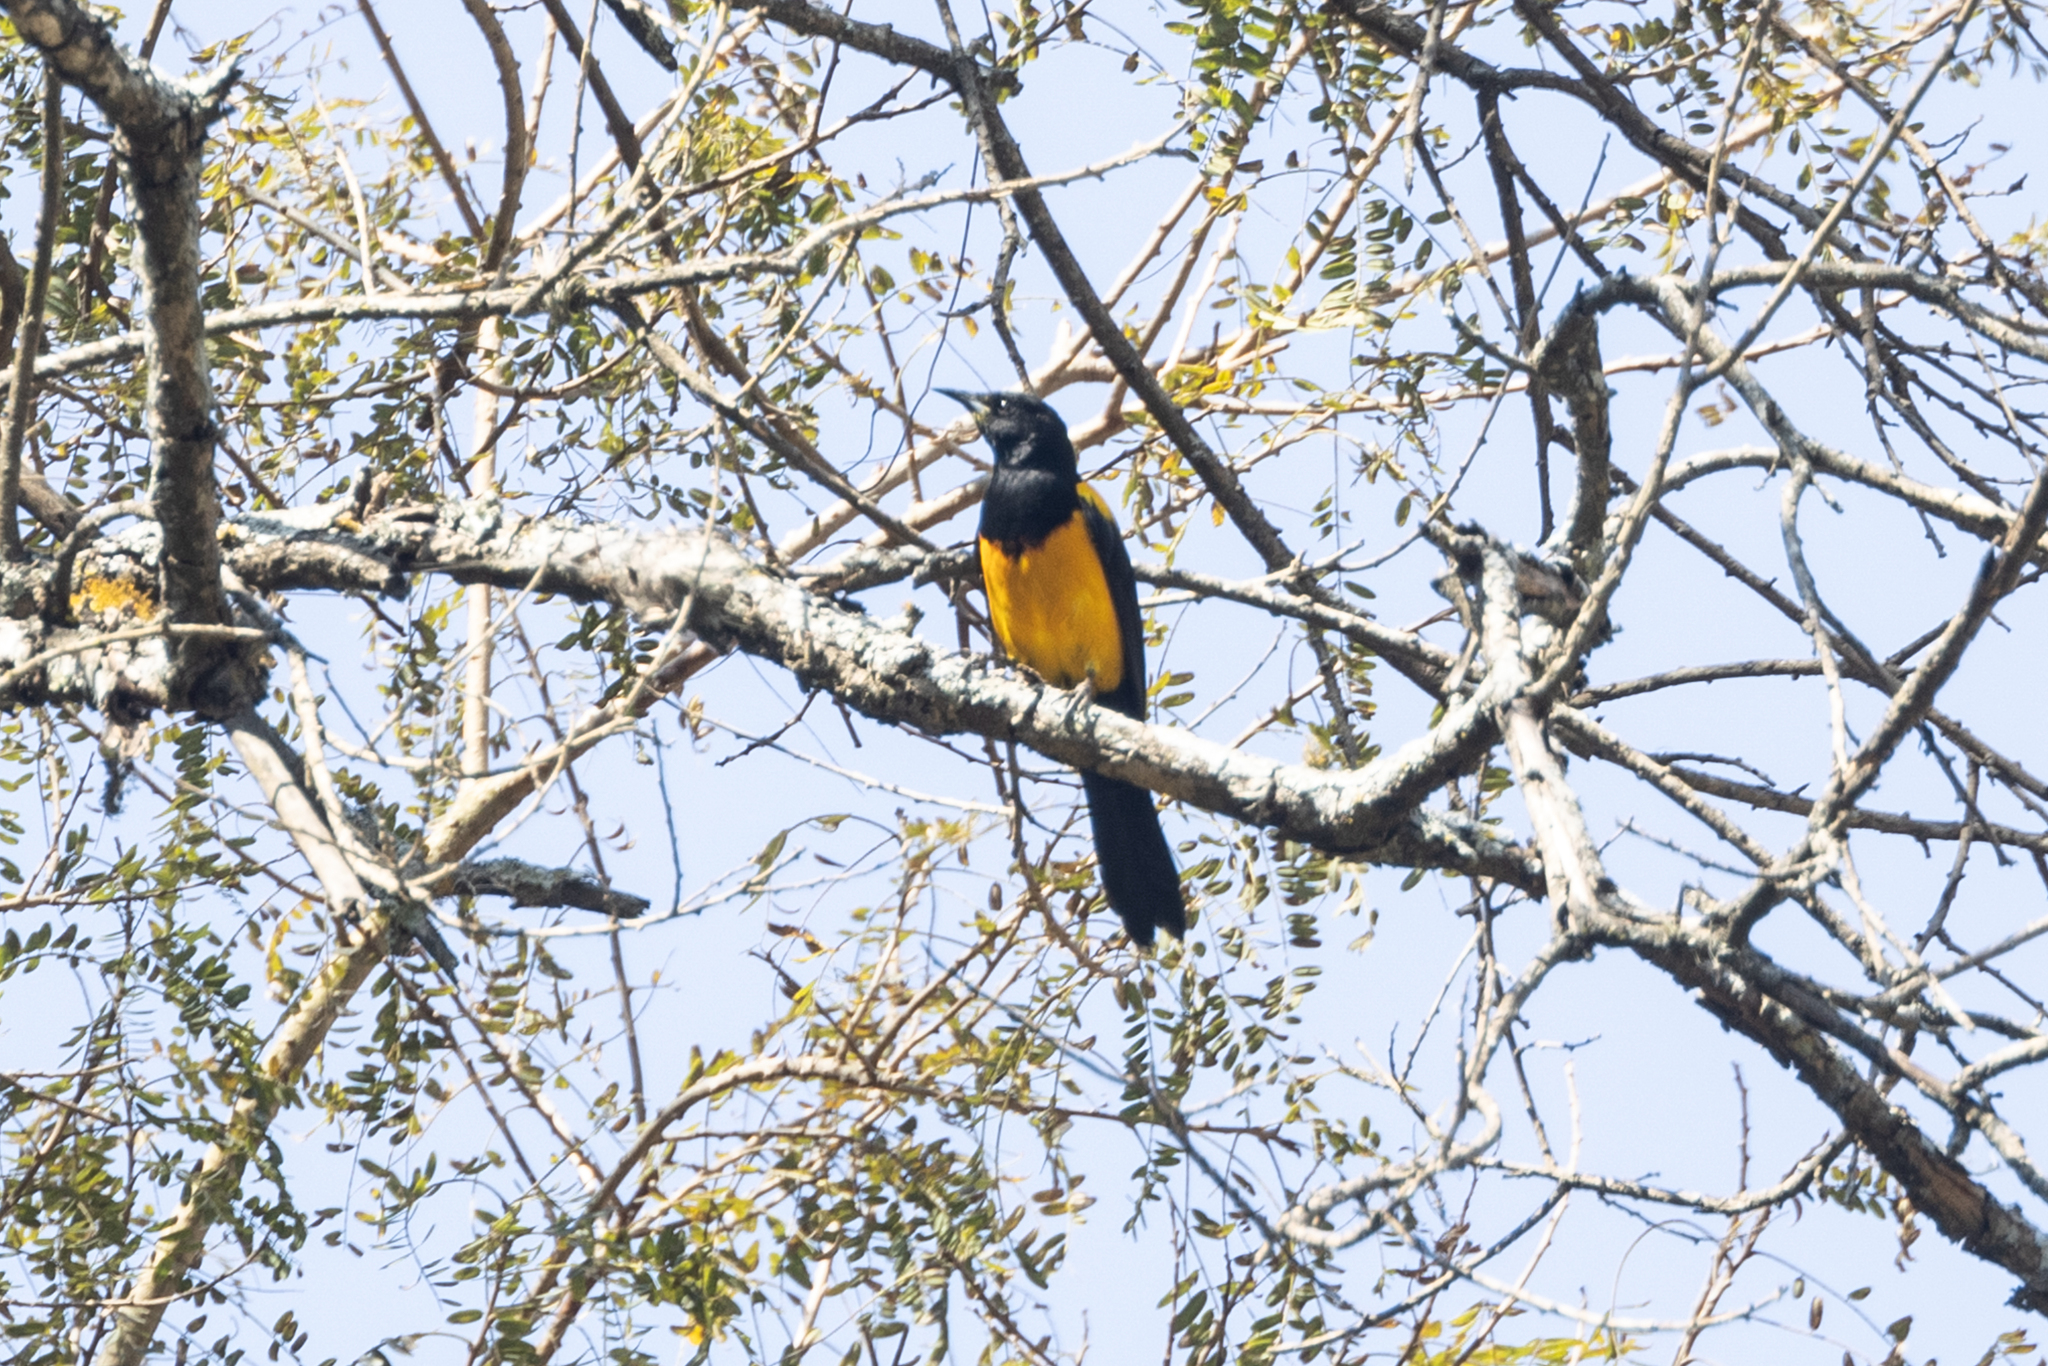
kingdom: Animalia
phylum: Chordata
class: Aves
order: Passeriformes
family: Icteridae
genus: Icterus
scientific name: Icterus wagleri
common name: Black-vented oriole
